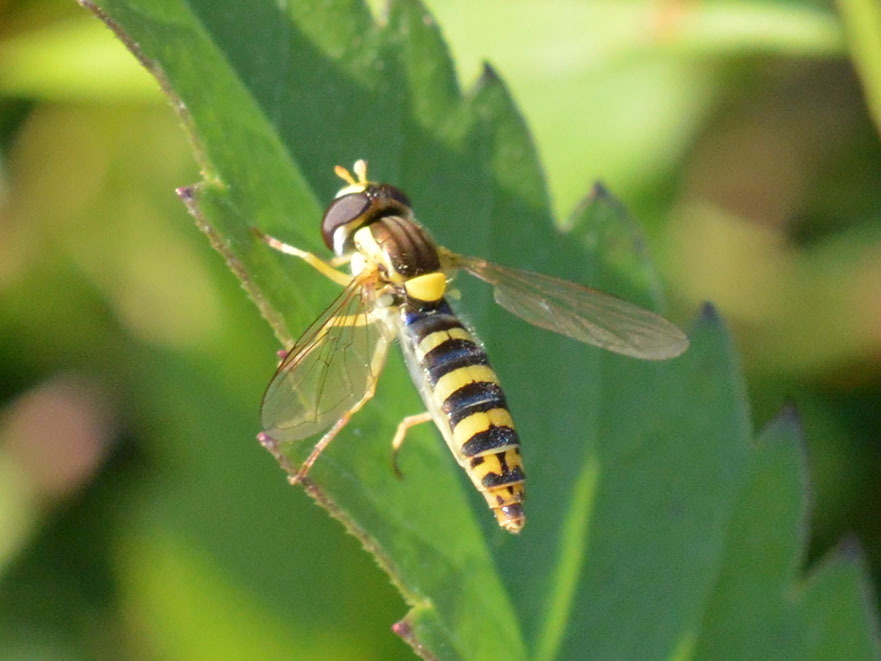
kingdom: Animalia
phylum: Arthropoda
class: Insecta
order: Diptera
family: Syrphidae
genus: Sphaerophoria
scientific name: Sphaerophoria
